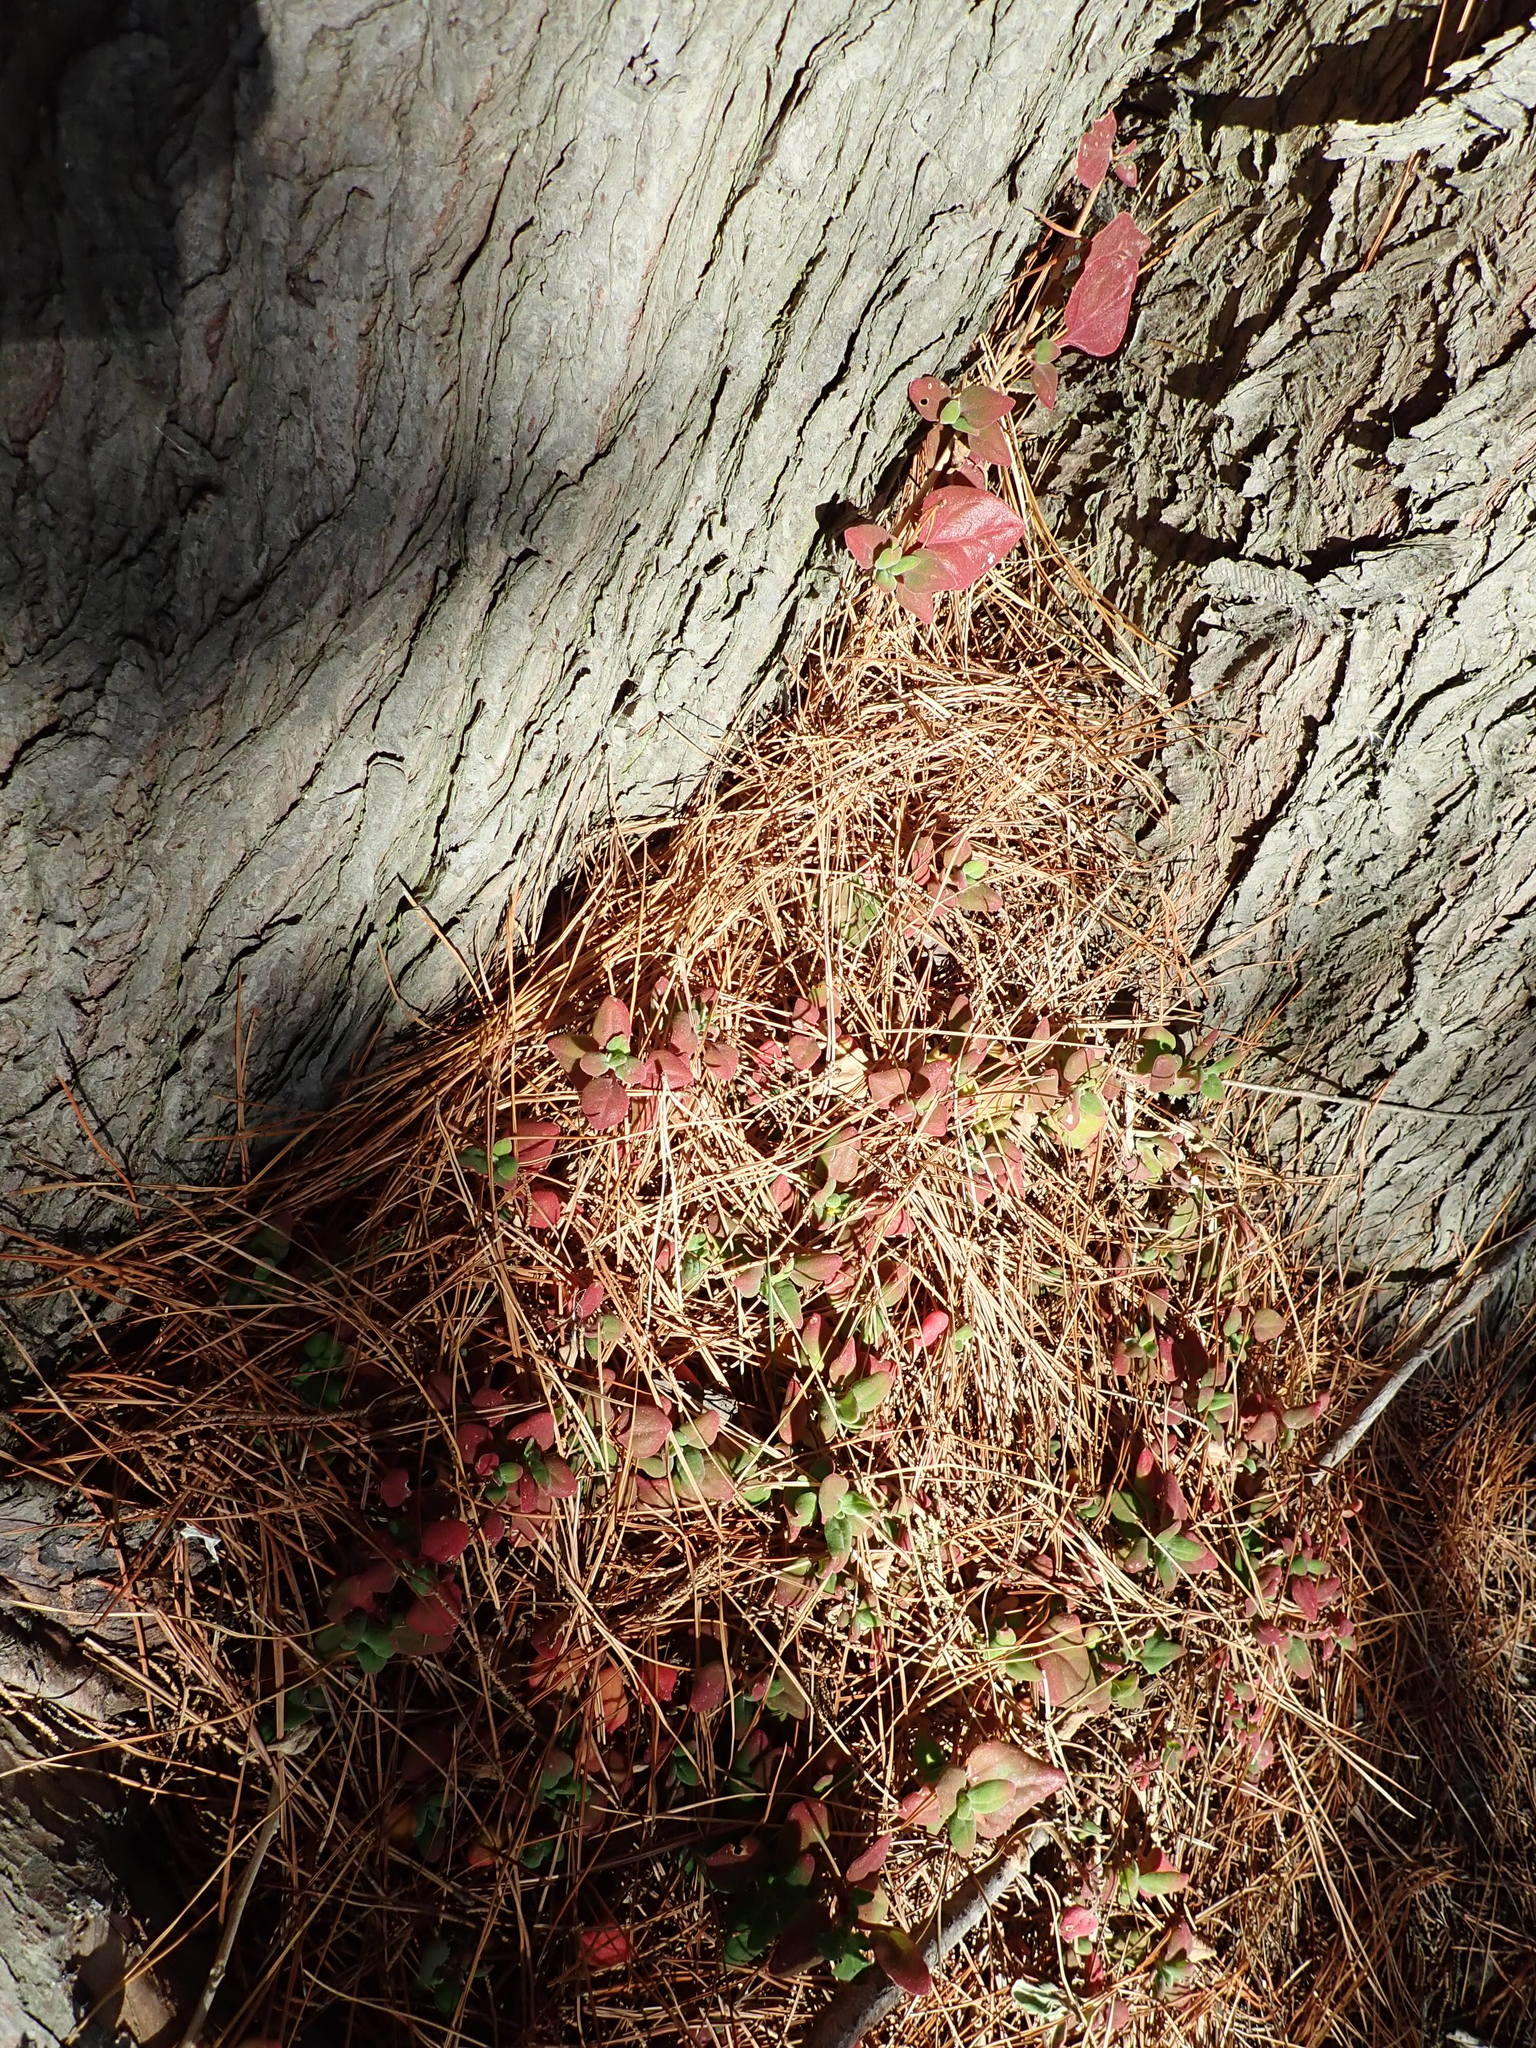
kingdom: Plantae
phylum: Tracheophyta
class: Magnoliopsida
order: Caryophyllales
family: Aizoaceae
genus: Tetragonia
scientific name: Tetragonia implexicoma
